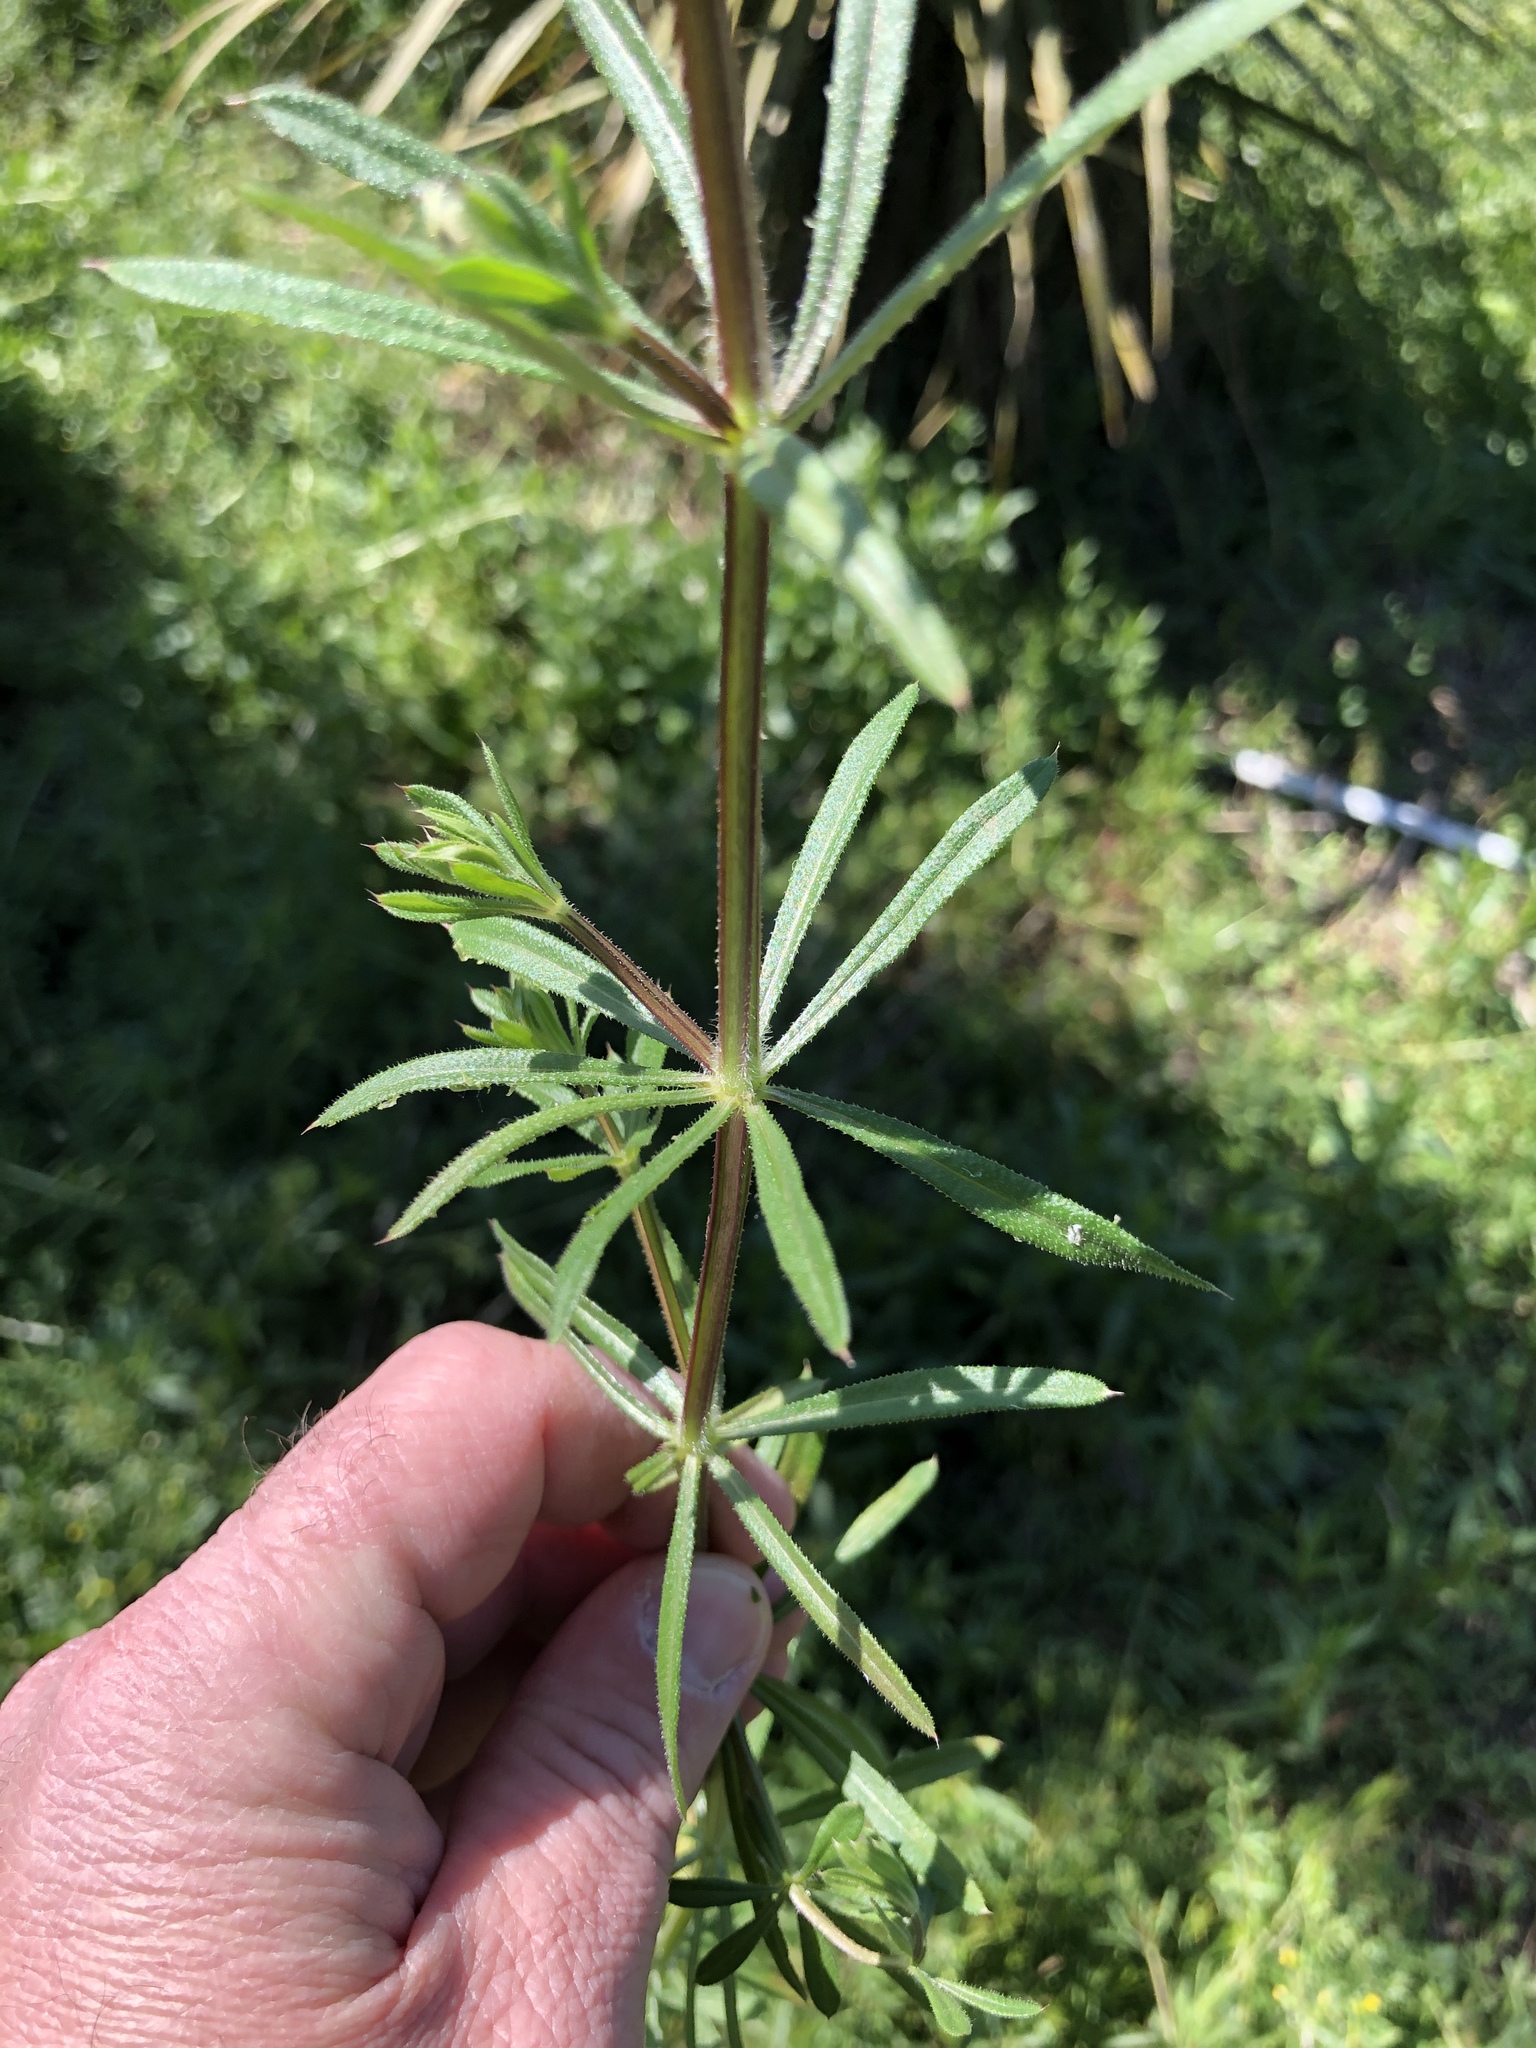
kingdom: Plantae
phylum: Tracheophyta
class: Magnoliopsida
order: Gentianales
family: Rubiaceae
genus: Galium
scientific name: Galium aparine
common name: Cleavers
